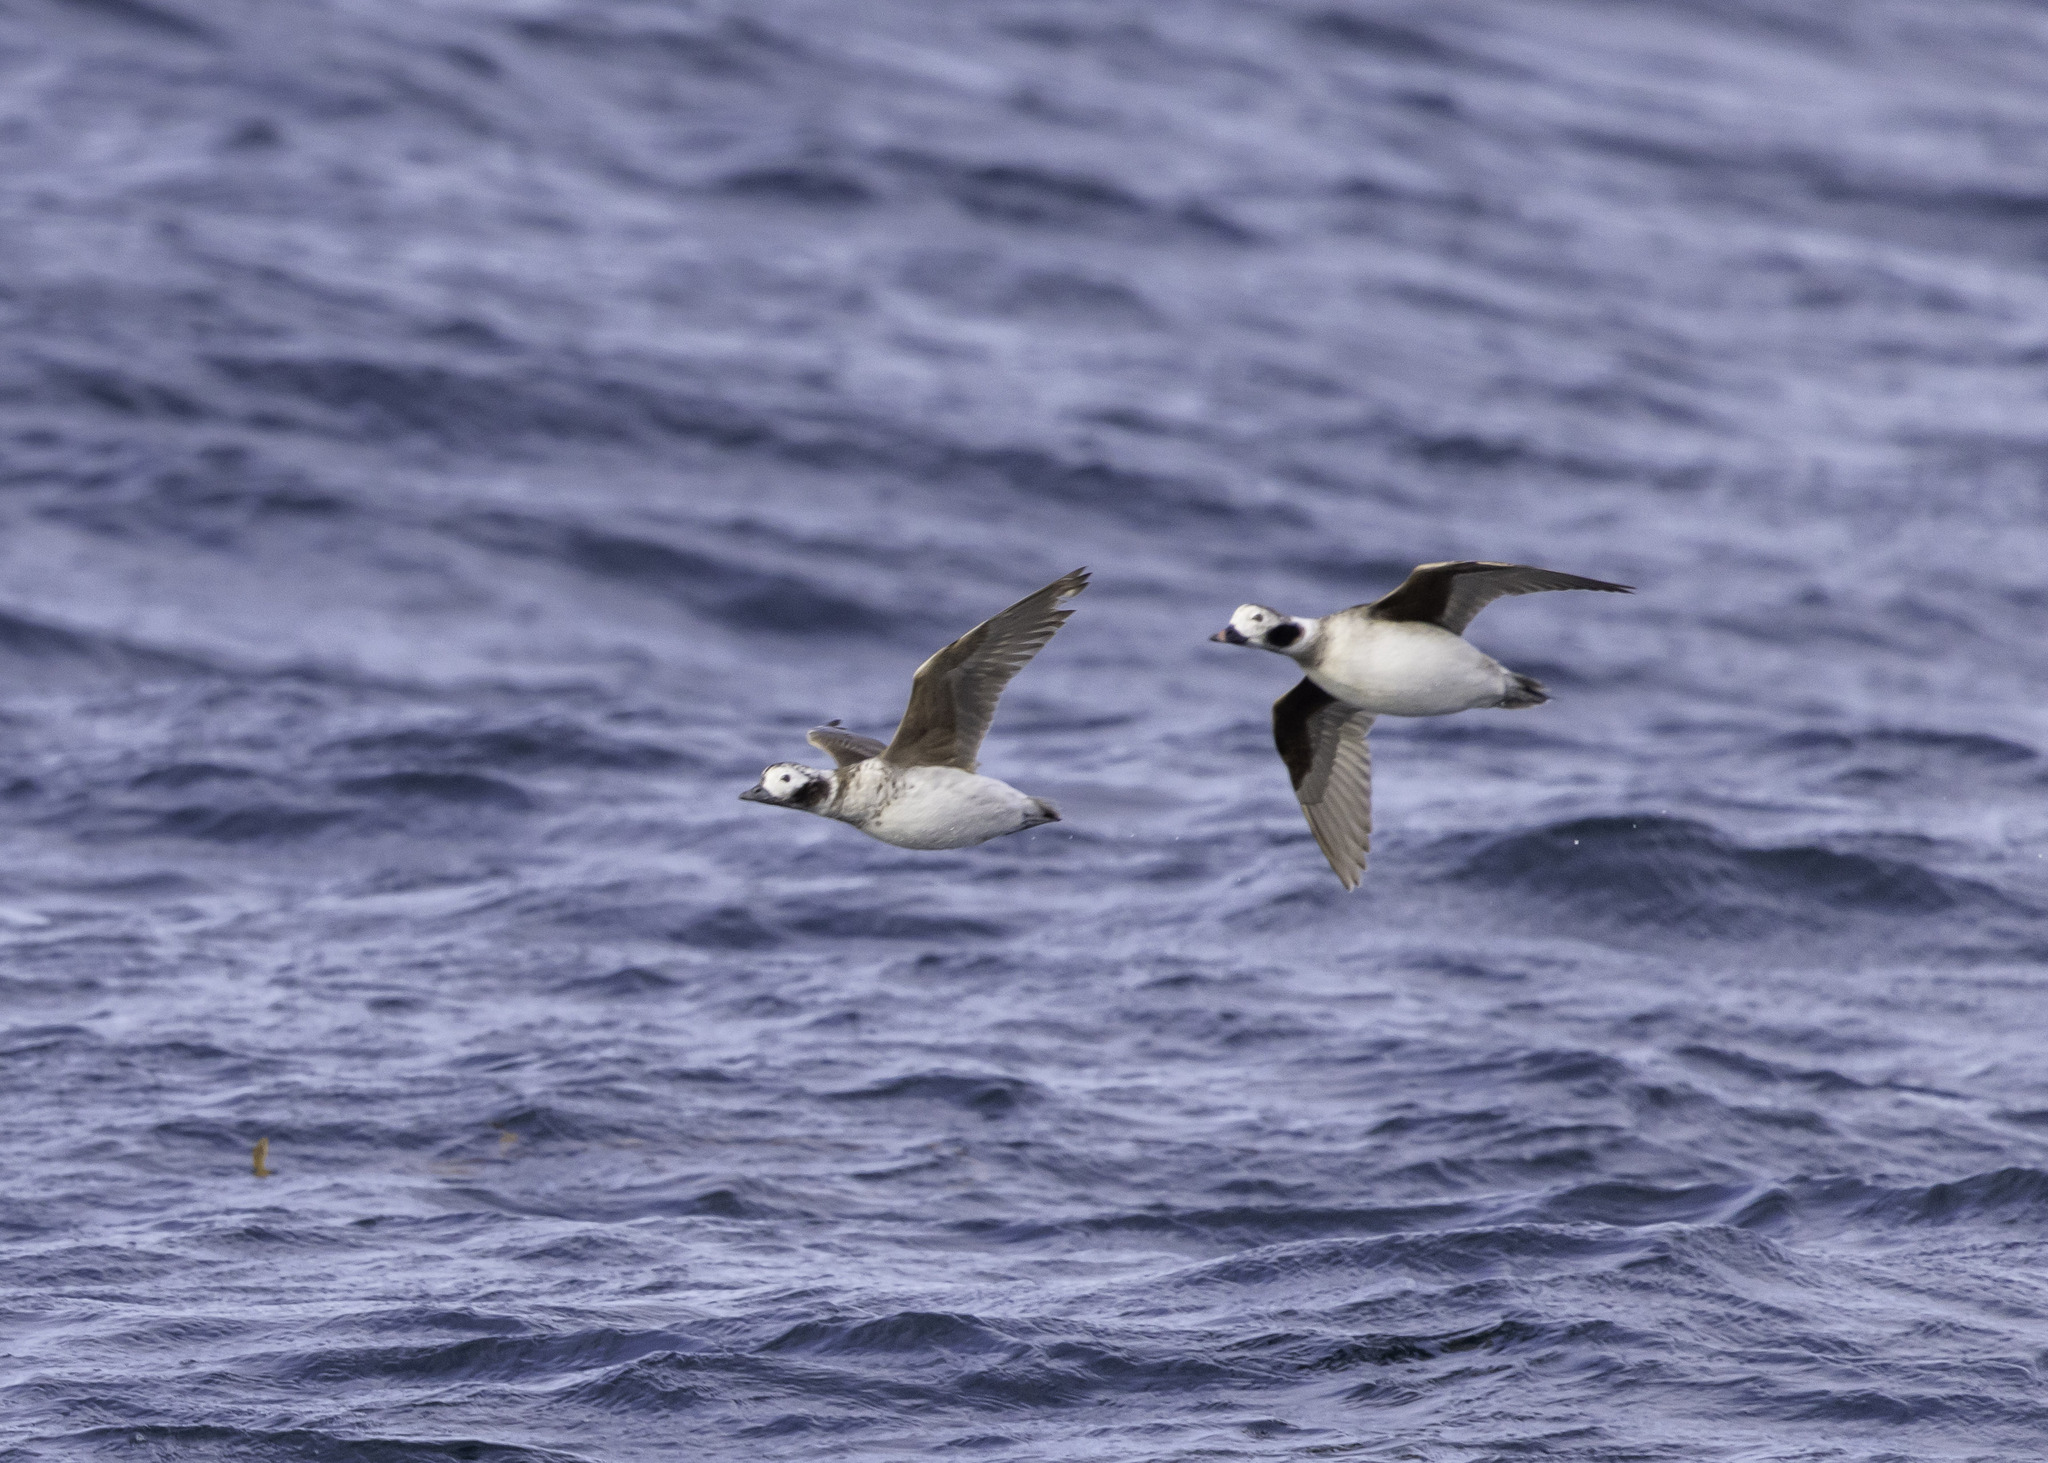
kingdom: Animalia
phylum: Chordata
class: Aves
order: Anseriformes
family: Anatidae
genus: Clangula
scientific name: Clangula hyemalis
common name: Long-tailed duck
